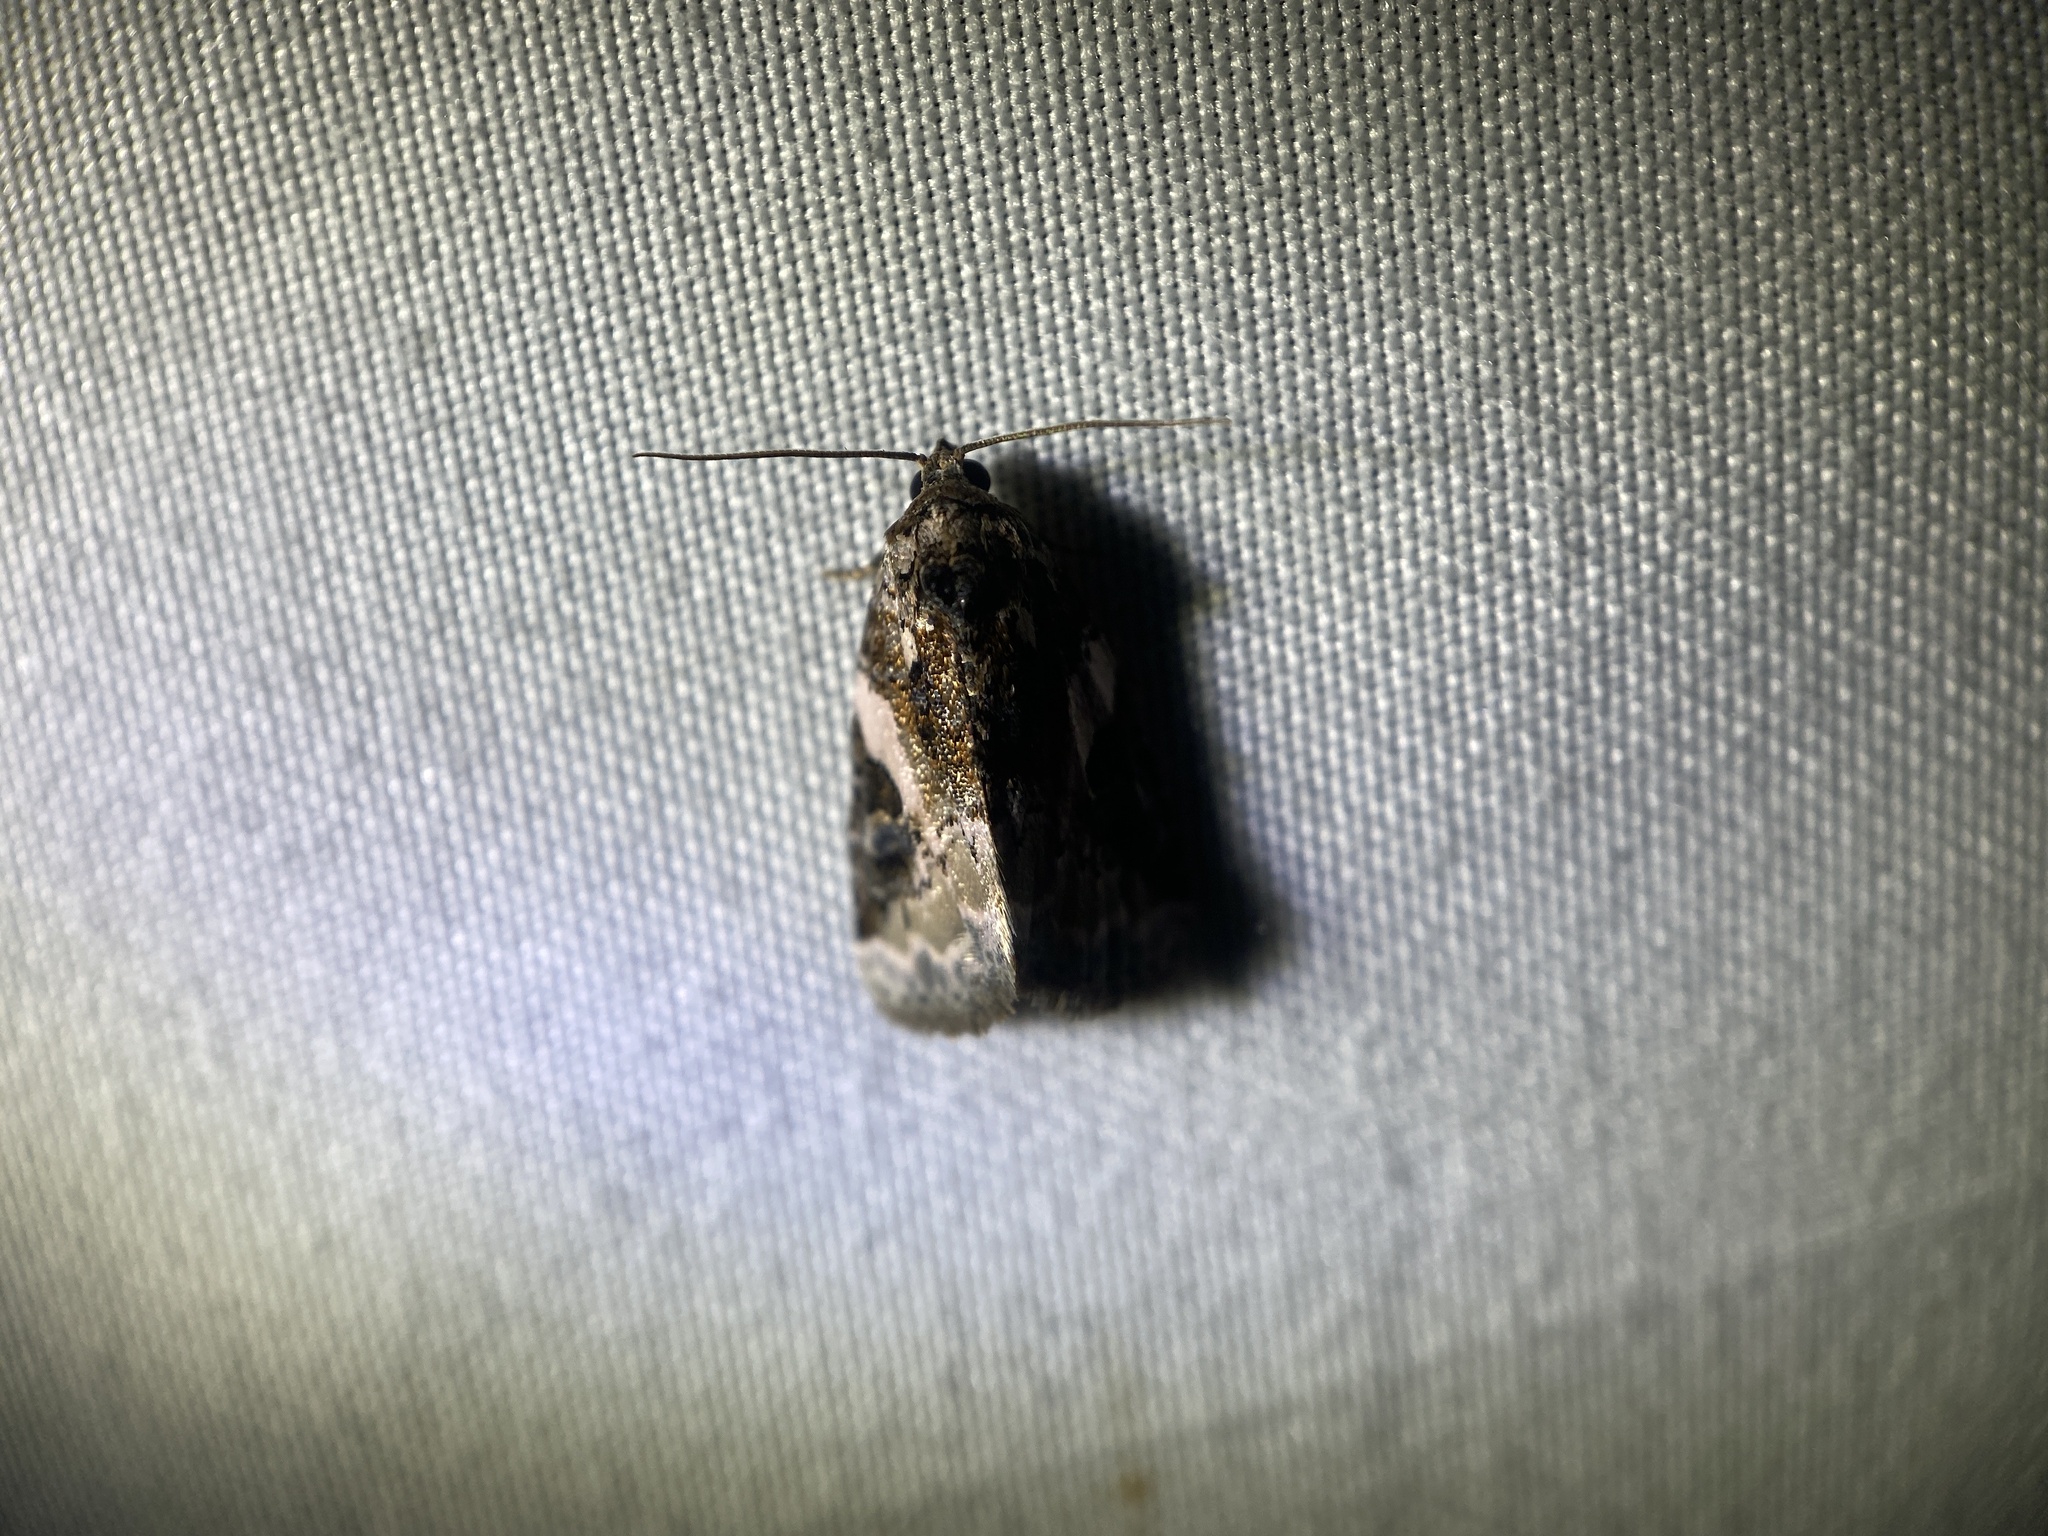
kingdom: Animalia
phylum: Arthropoda
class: Insecta
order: Lepidoptera
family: Noctuidae
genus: Pseudeustrotia
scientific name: Pseudeustrotia carneola
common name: Pink-barred lithacodia moth
